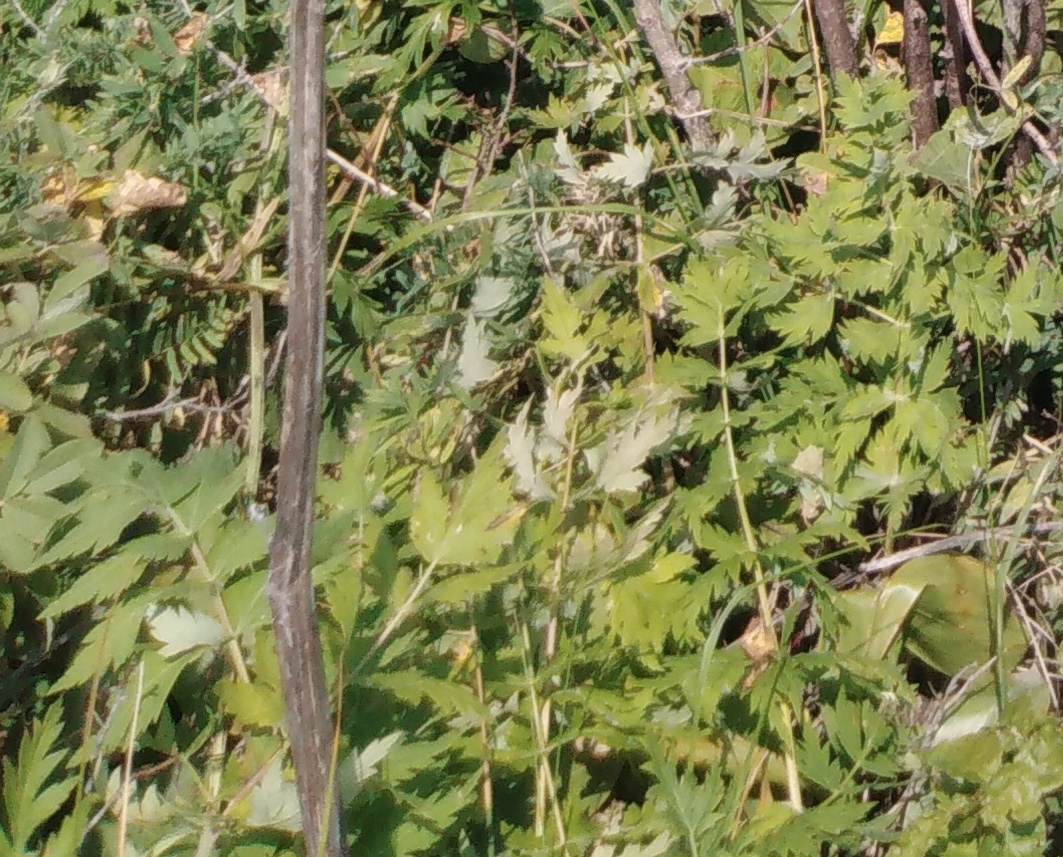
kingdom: Plantae
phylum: Tracheophyta
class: Magnoliopsida
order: Apiales
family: Apiaceae
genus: Seseli
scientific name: Seseli libanotis
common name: Mooncarrot
